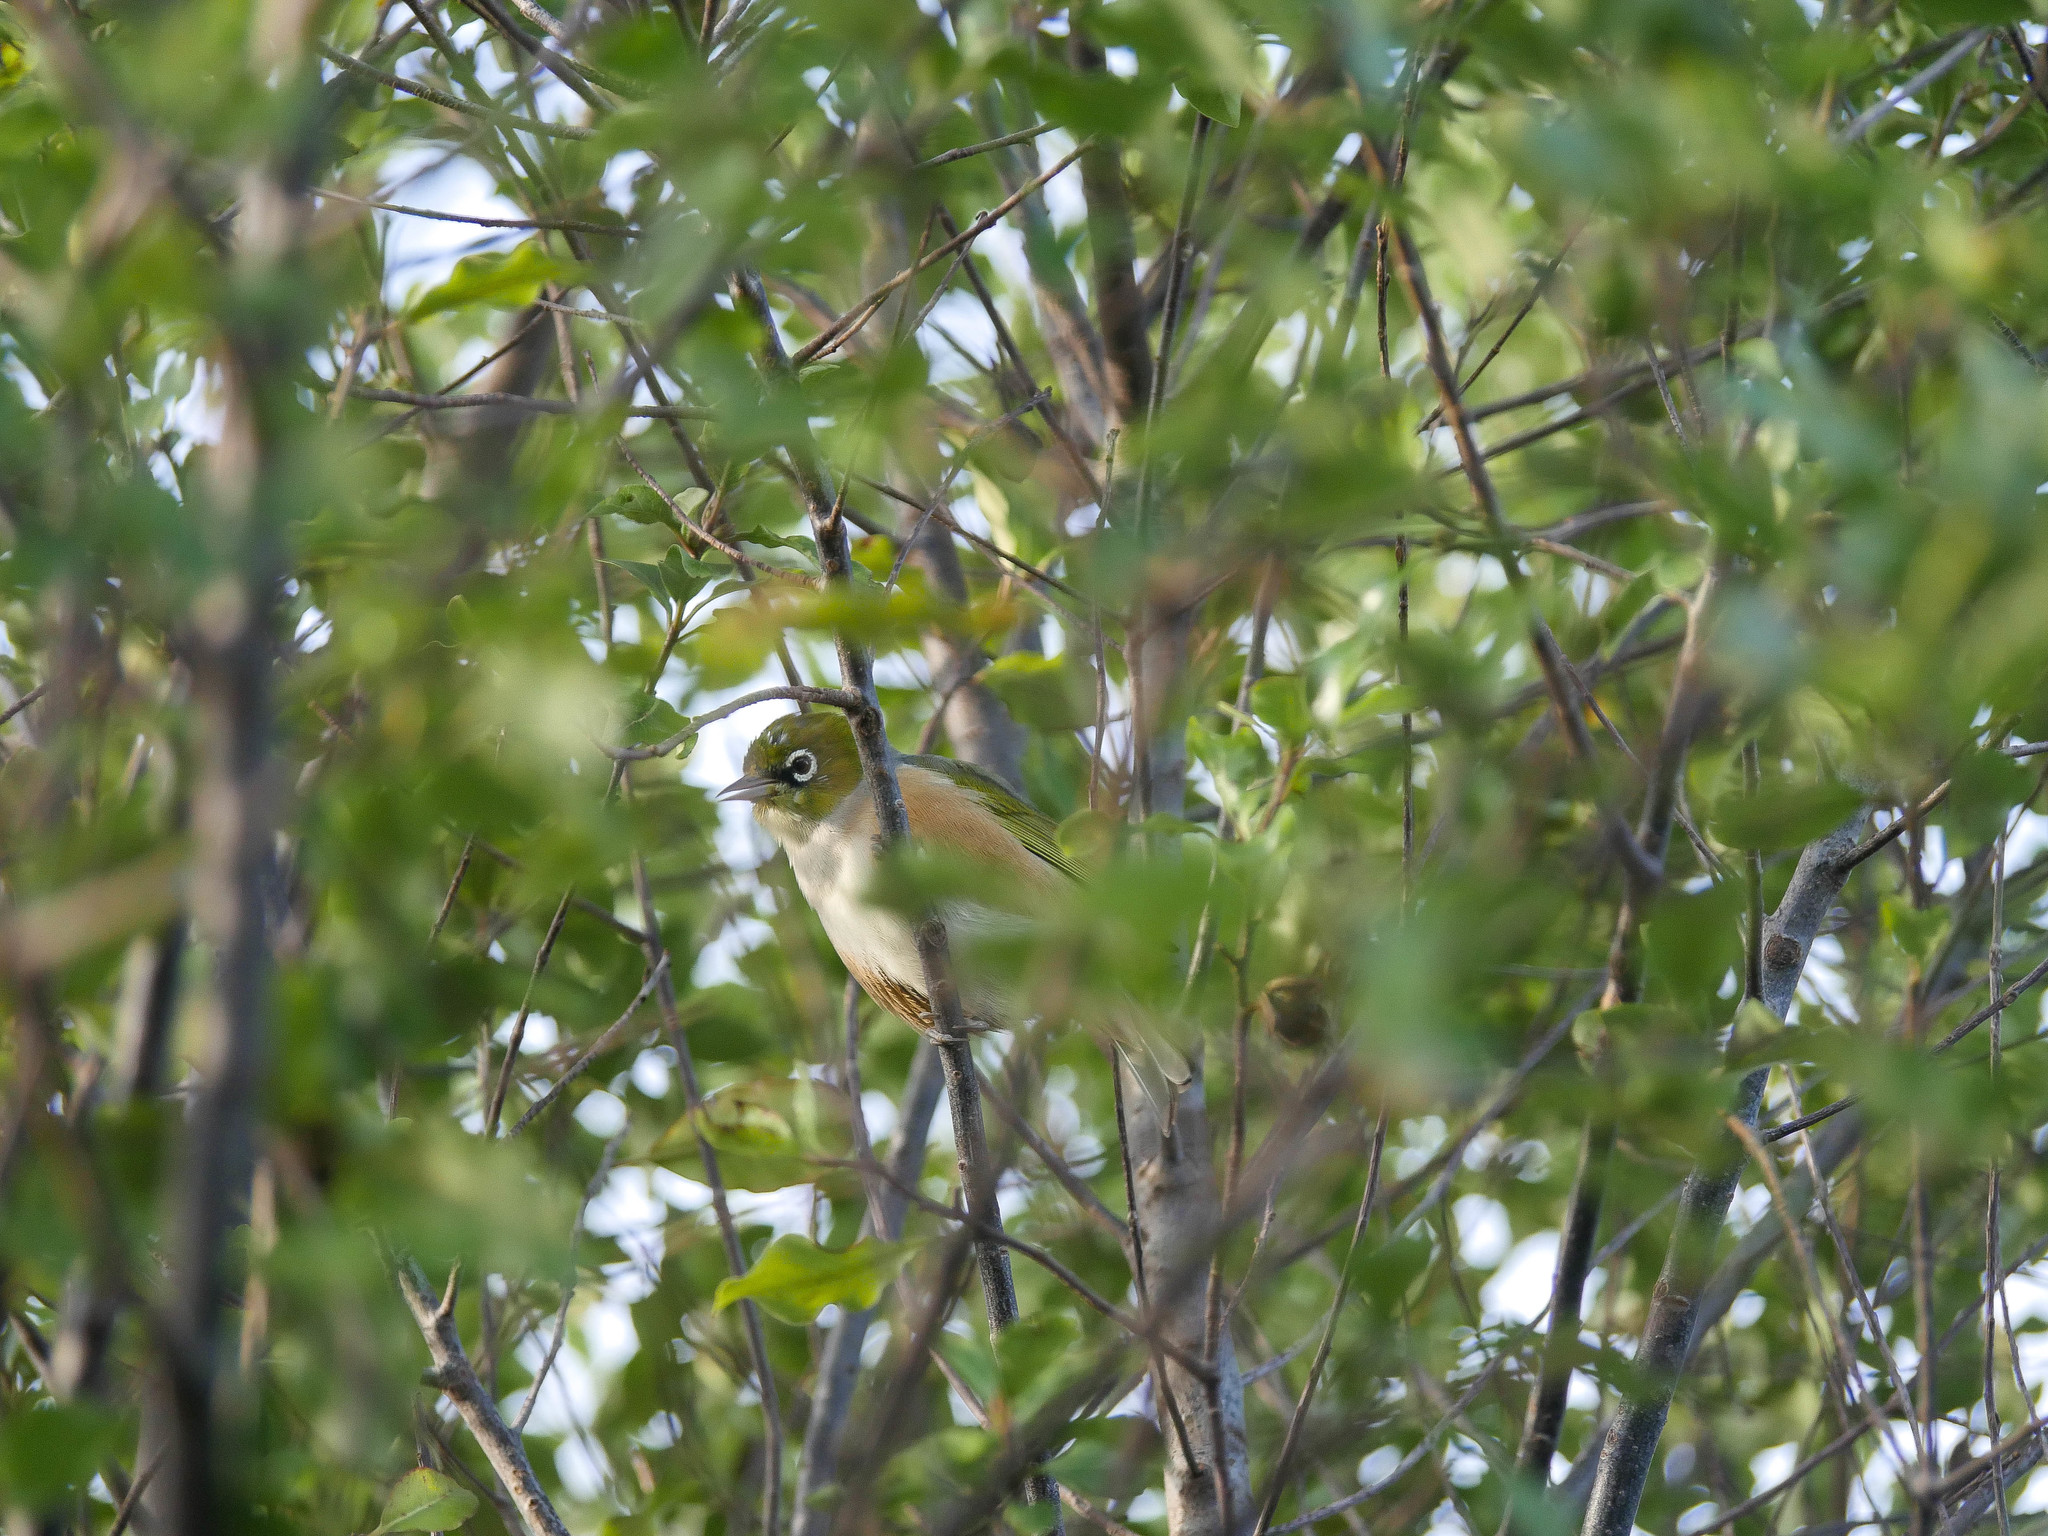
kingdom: Animalia
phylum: Chordata
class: Aves
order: Passeriformes
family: Zosteropidae
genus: Zosterops
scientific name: Zosterops lateralis
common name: Silvereye
